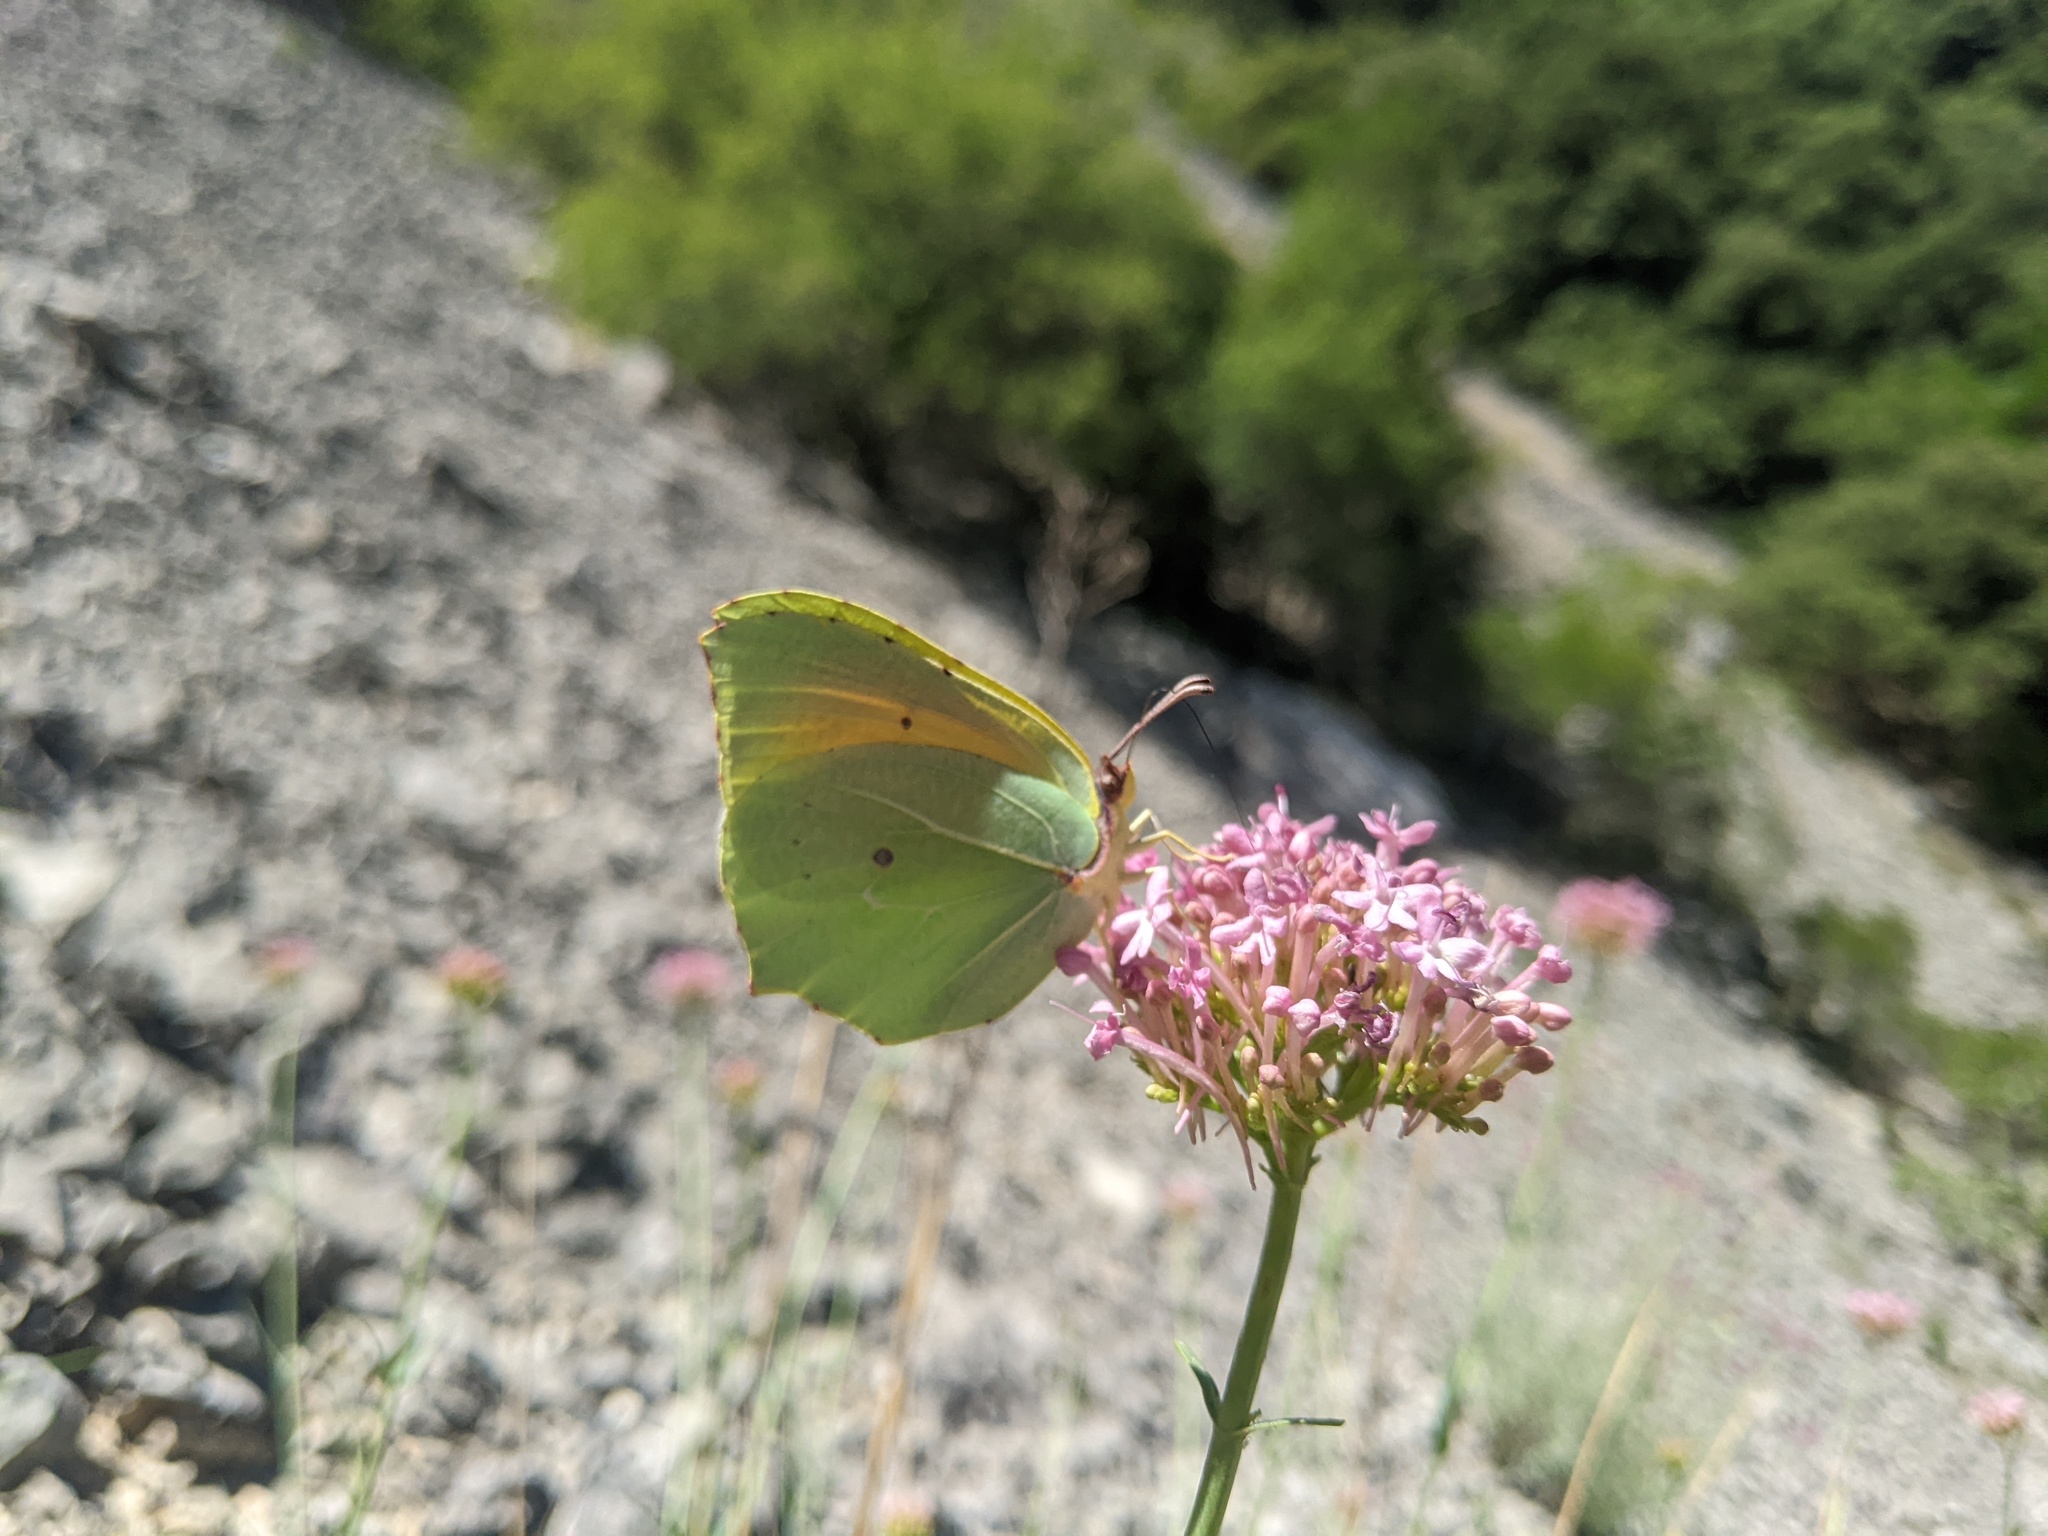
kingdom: Animalia
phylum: Arthropoda
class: Insecta
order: Lepidoptera
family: Pieridae
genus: Gonepteryx
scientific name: Gonepteryx cleopatra
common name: Cleopatra
